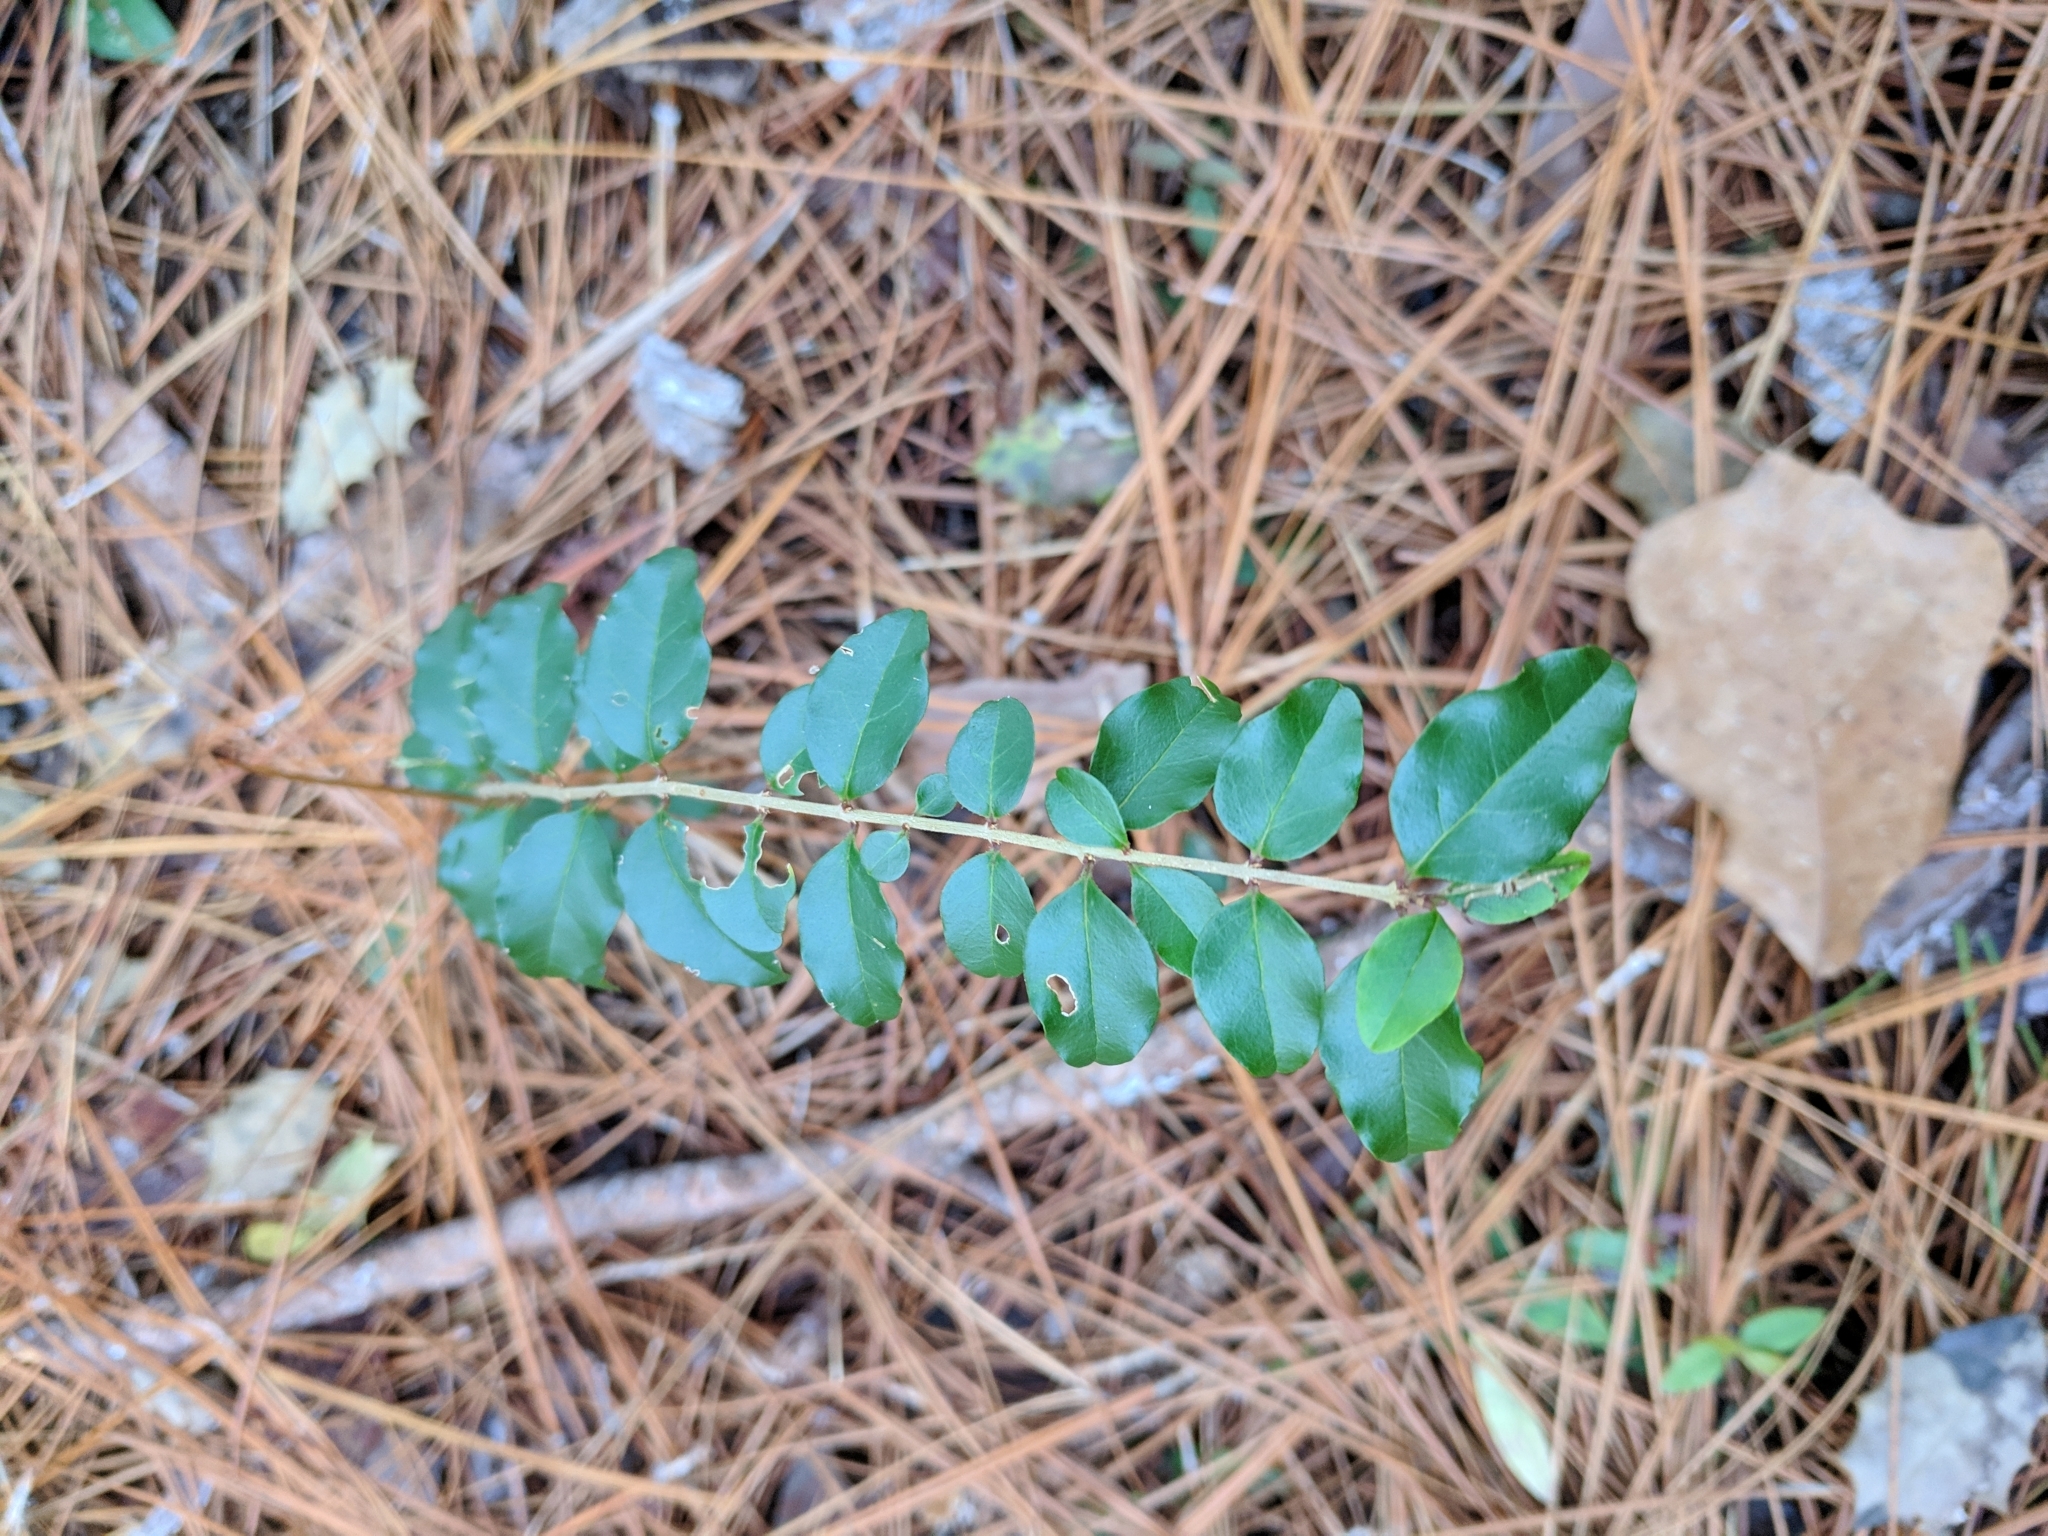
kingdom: Plantae
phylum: Tracheophyta
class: Magnoliopsida
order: Lamiales
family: Oleaceae
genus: Ligustrum
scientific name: Ligustrum sinense
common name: Chinese privet
